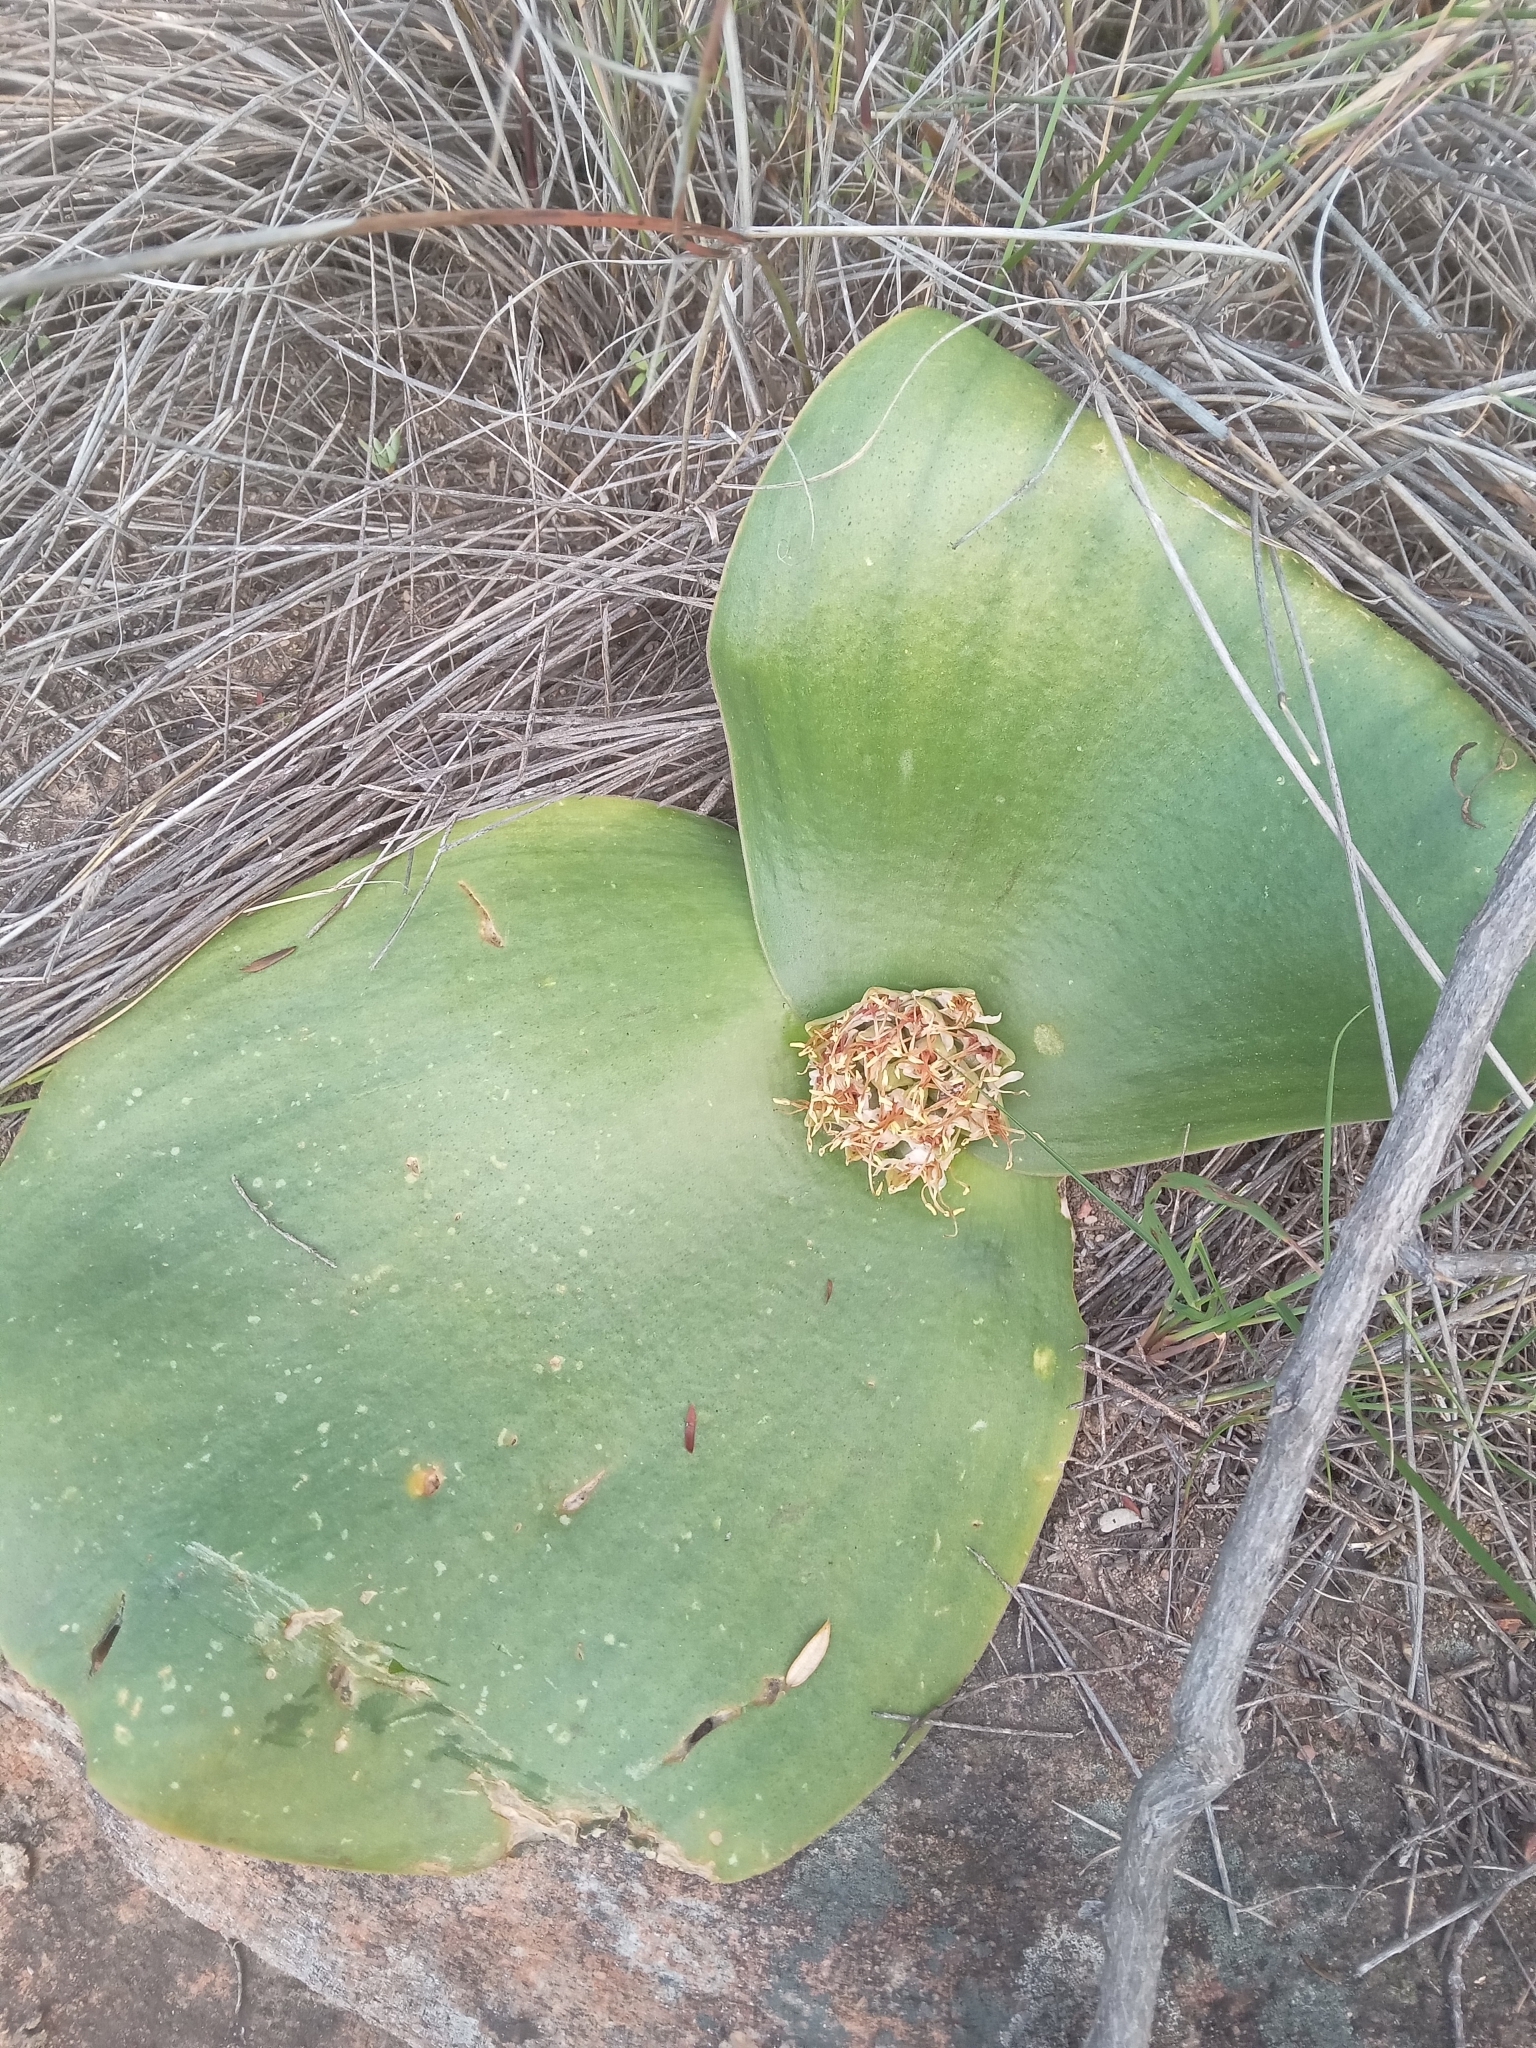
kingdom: Plantae
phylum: Tracheophyta
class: Liliopsida
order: Asparagales
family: Asparagaceae
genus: Massonia
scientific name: Massonia depressa
